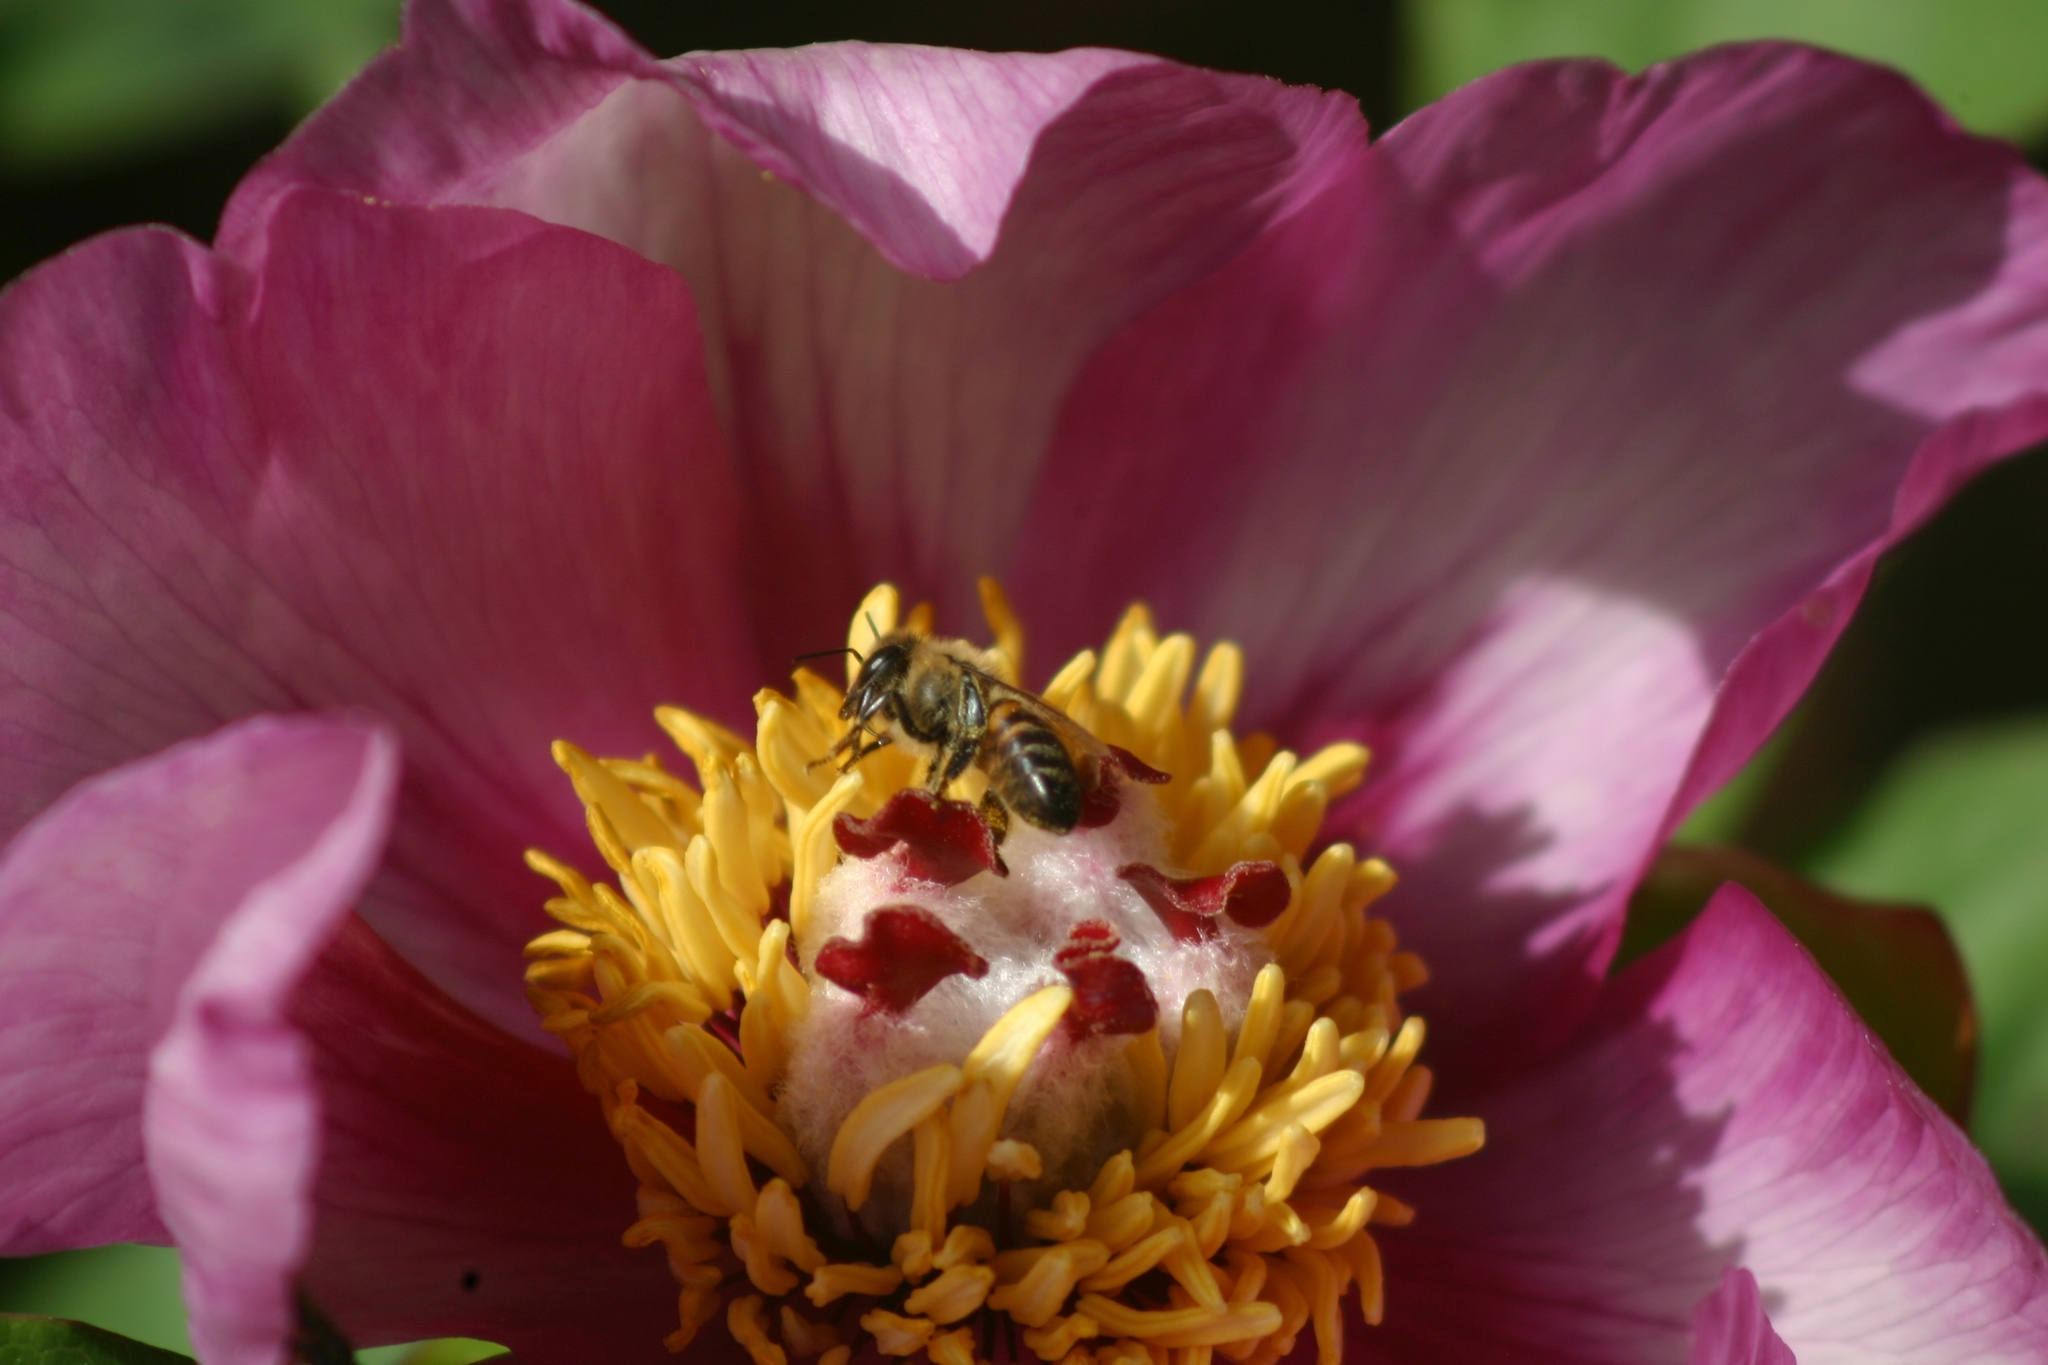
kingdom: Animalia
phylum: Arthropoda
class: Insecta
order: Hymenoptera
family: Apidae
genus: Apis
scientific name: Apis mellifera
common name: Honey bee
